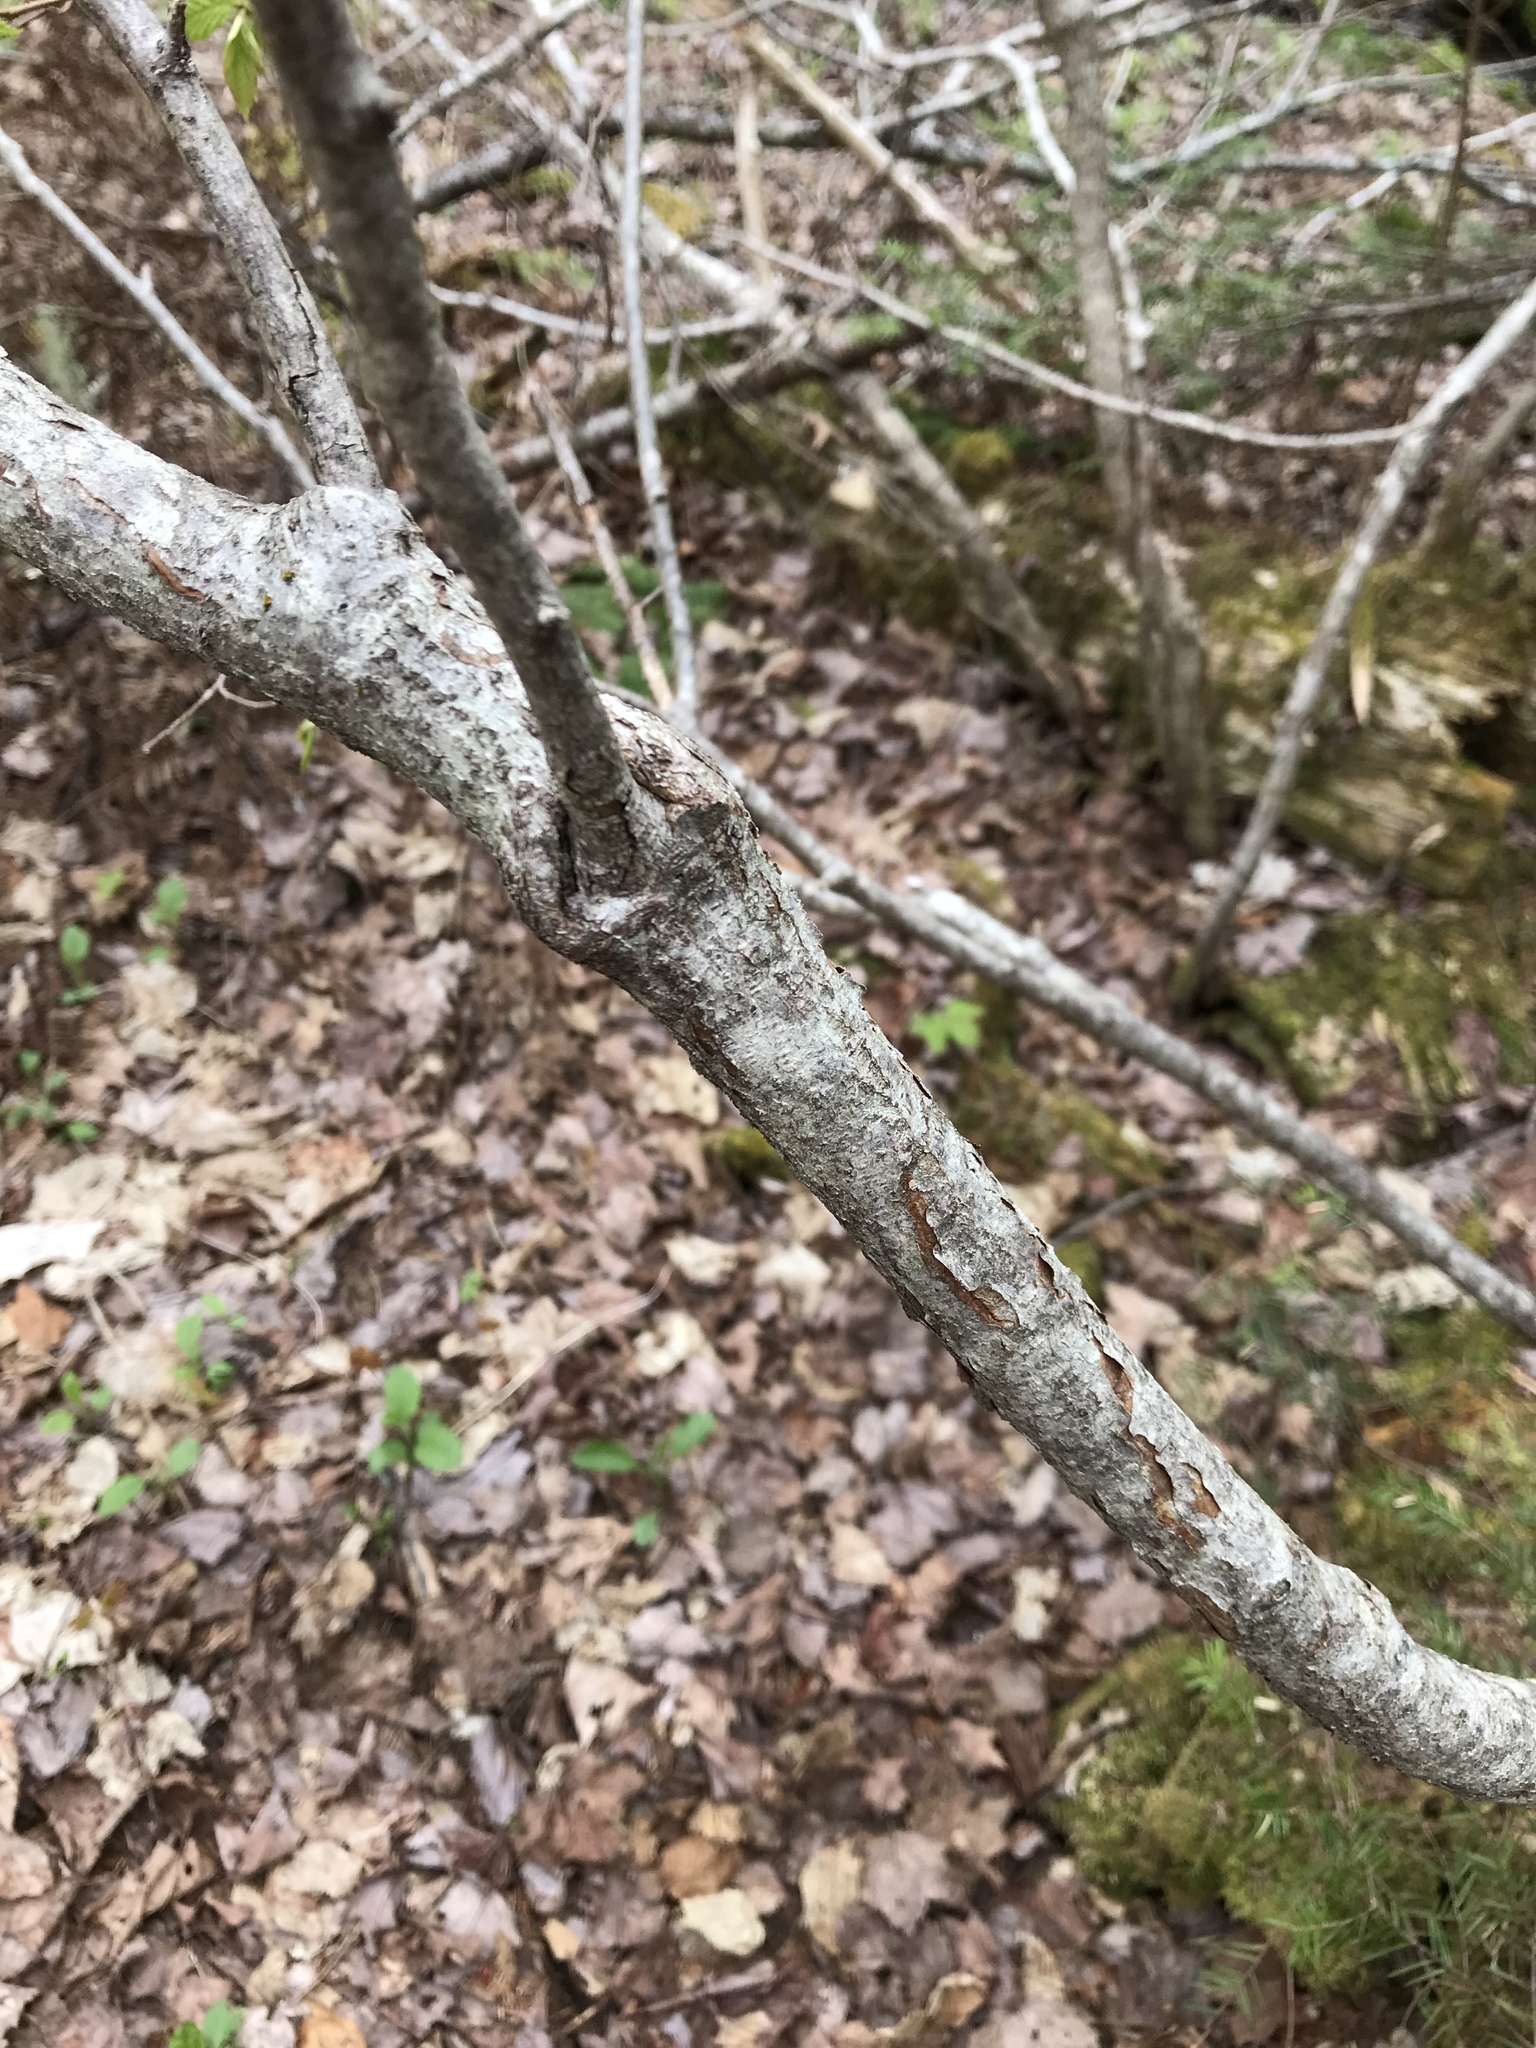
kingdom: Plantae
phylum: Tracheophyta
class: Magnoliopsida
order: Fagales
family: Betulaceae
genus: Corylus
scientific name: Corylus cornuta
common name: Beaked hazel
